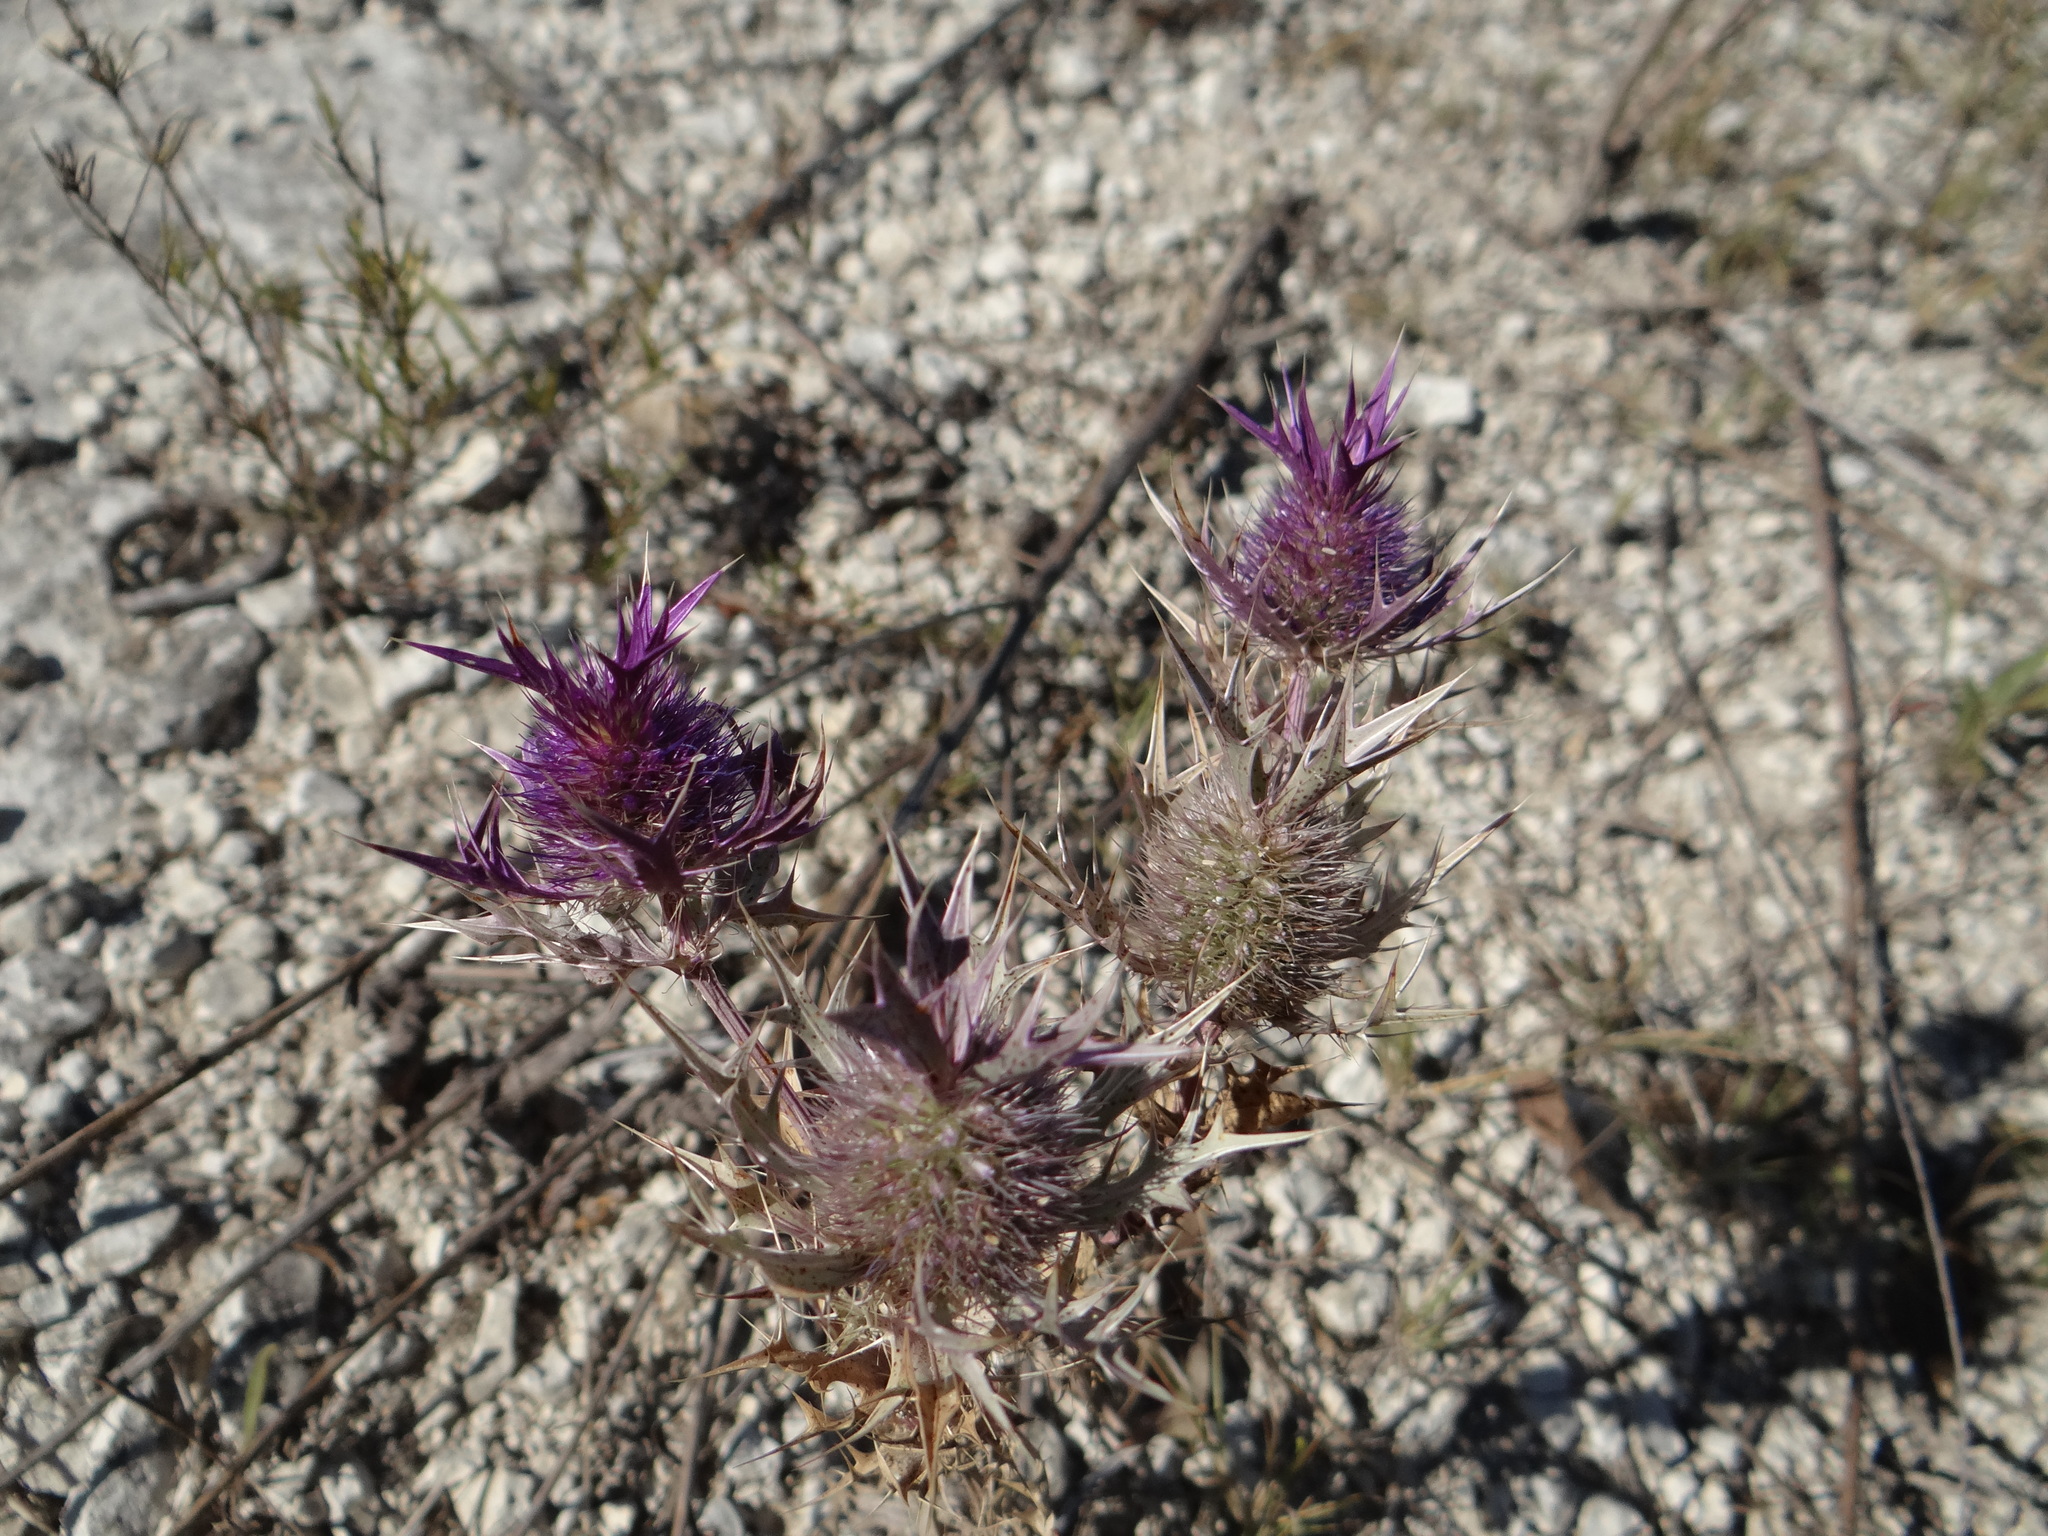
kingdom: Plantae
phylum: Tracheophyta
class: Magnoliopsida
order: Apiales
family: Apiaceae
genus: Eryngium
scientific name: Eryngium leavenworthii
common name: Leavenworth's eryngo
